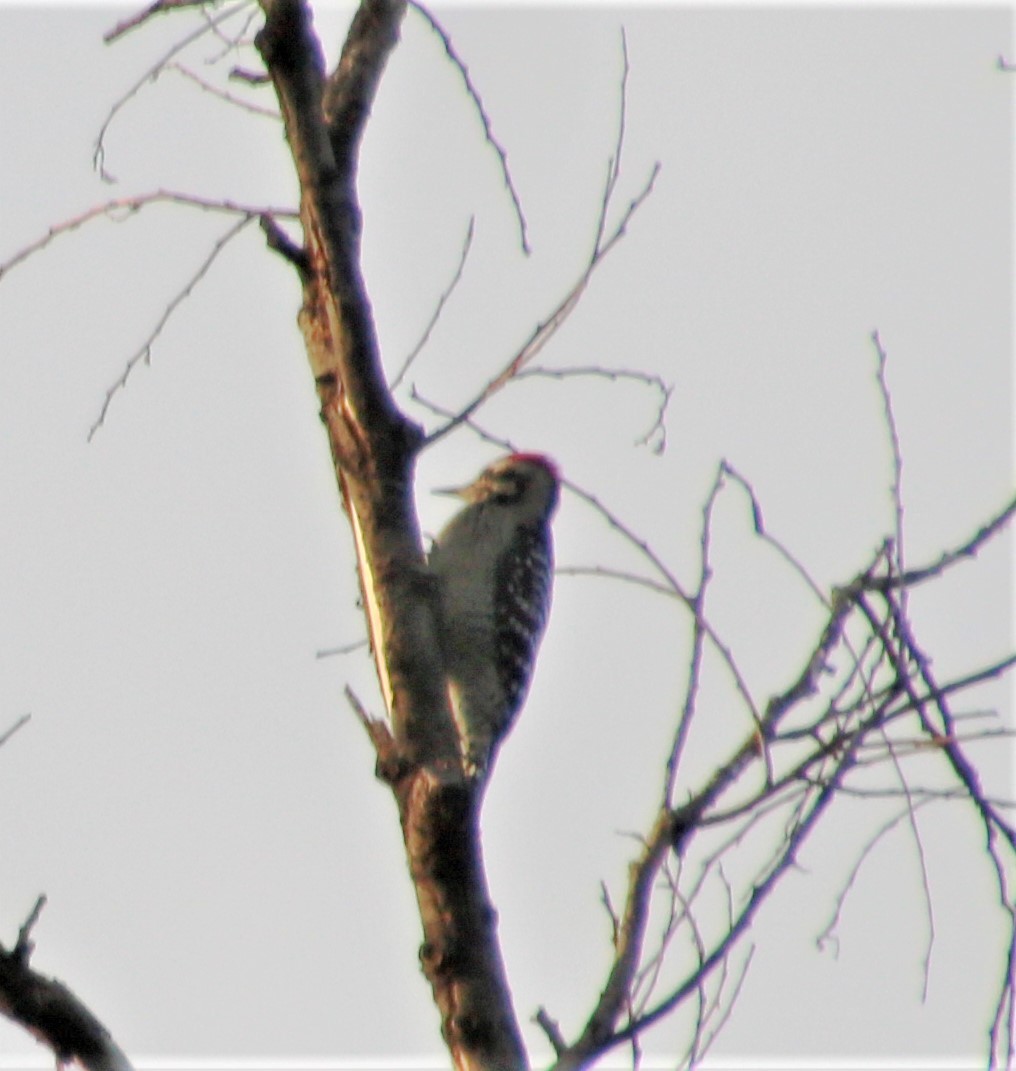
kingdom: Animalia
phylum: Chordata
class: Aves
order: Piciformes
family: Picidae
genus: Dryobates
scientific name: Dryobates scalaris
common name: Ladder-backed woodpecker
